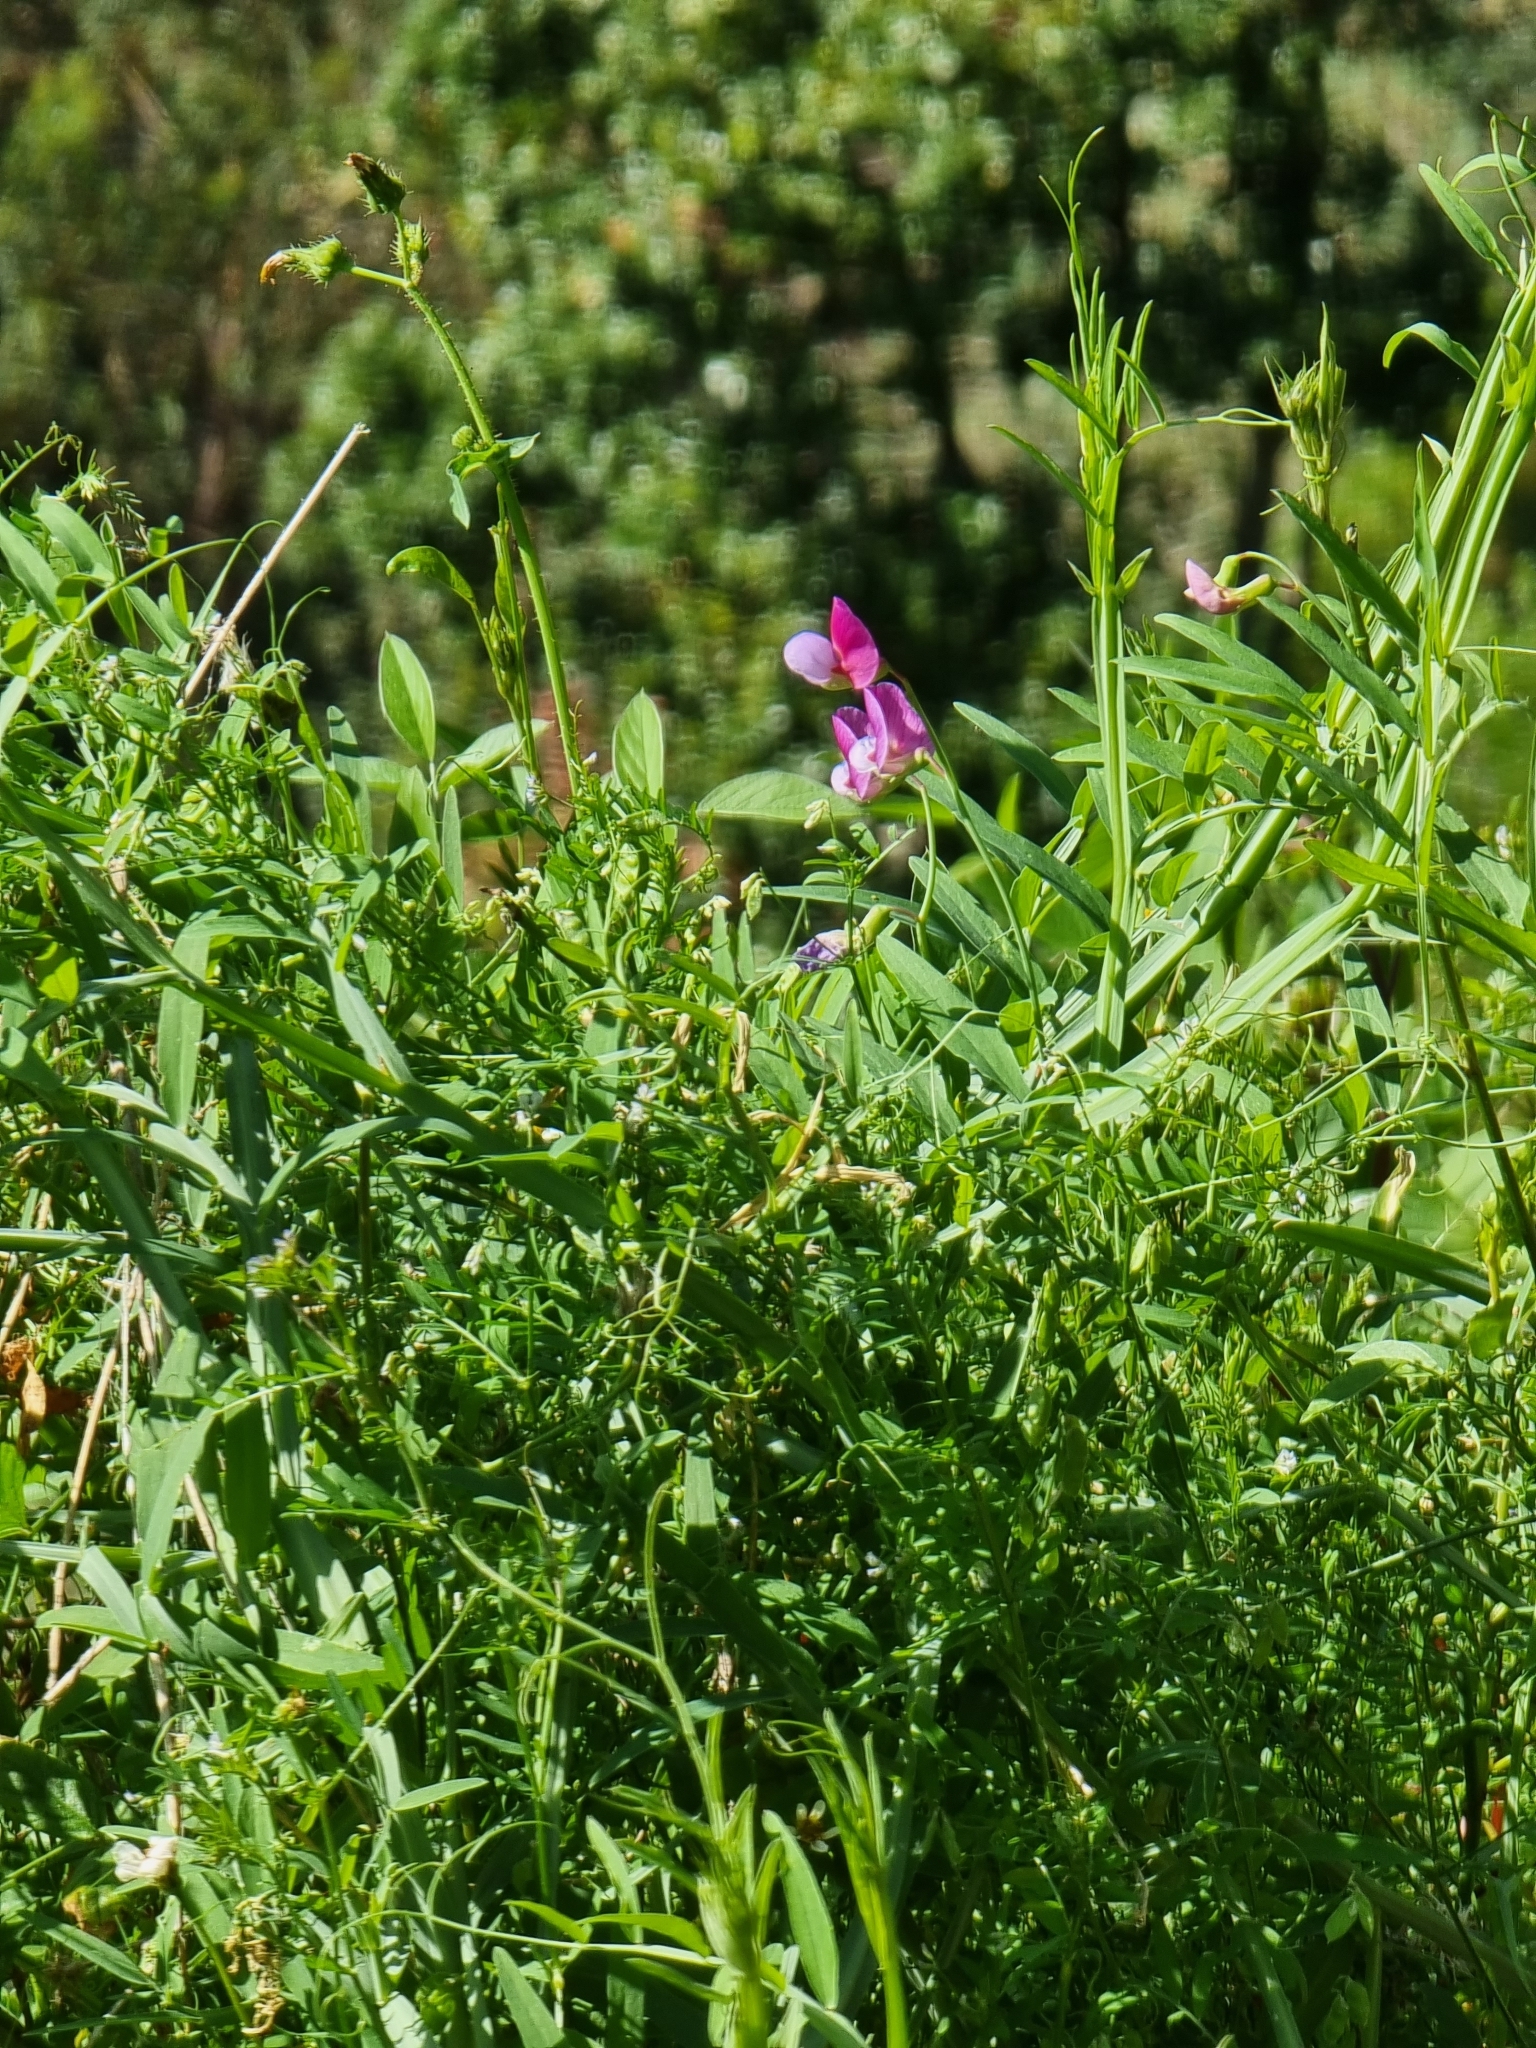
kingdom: Plantae
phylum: Tracheophyta
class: Magnoliopsida
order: Fabales
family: Fabaceae
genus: Lathyrus
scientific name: Lathyrus clymenum
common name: Spanish vetchling
